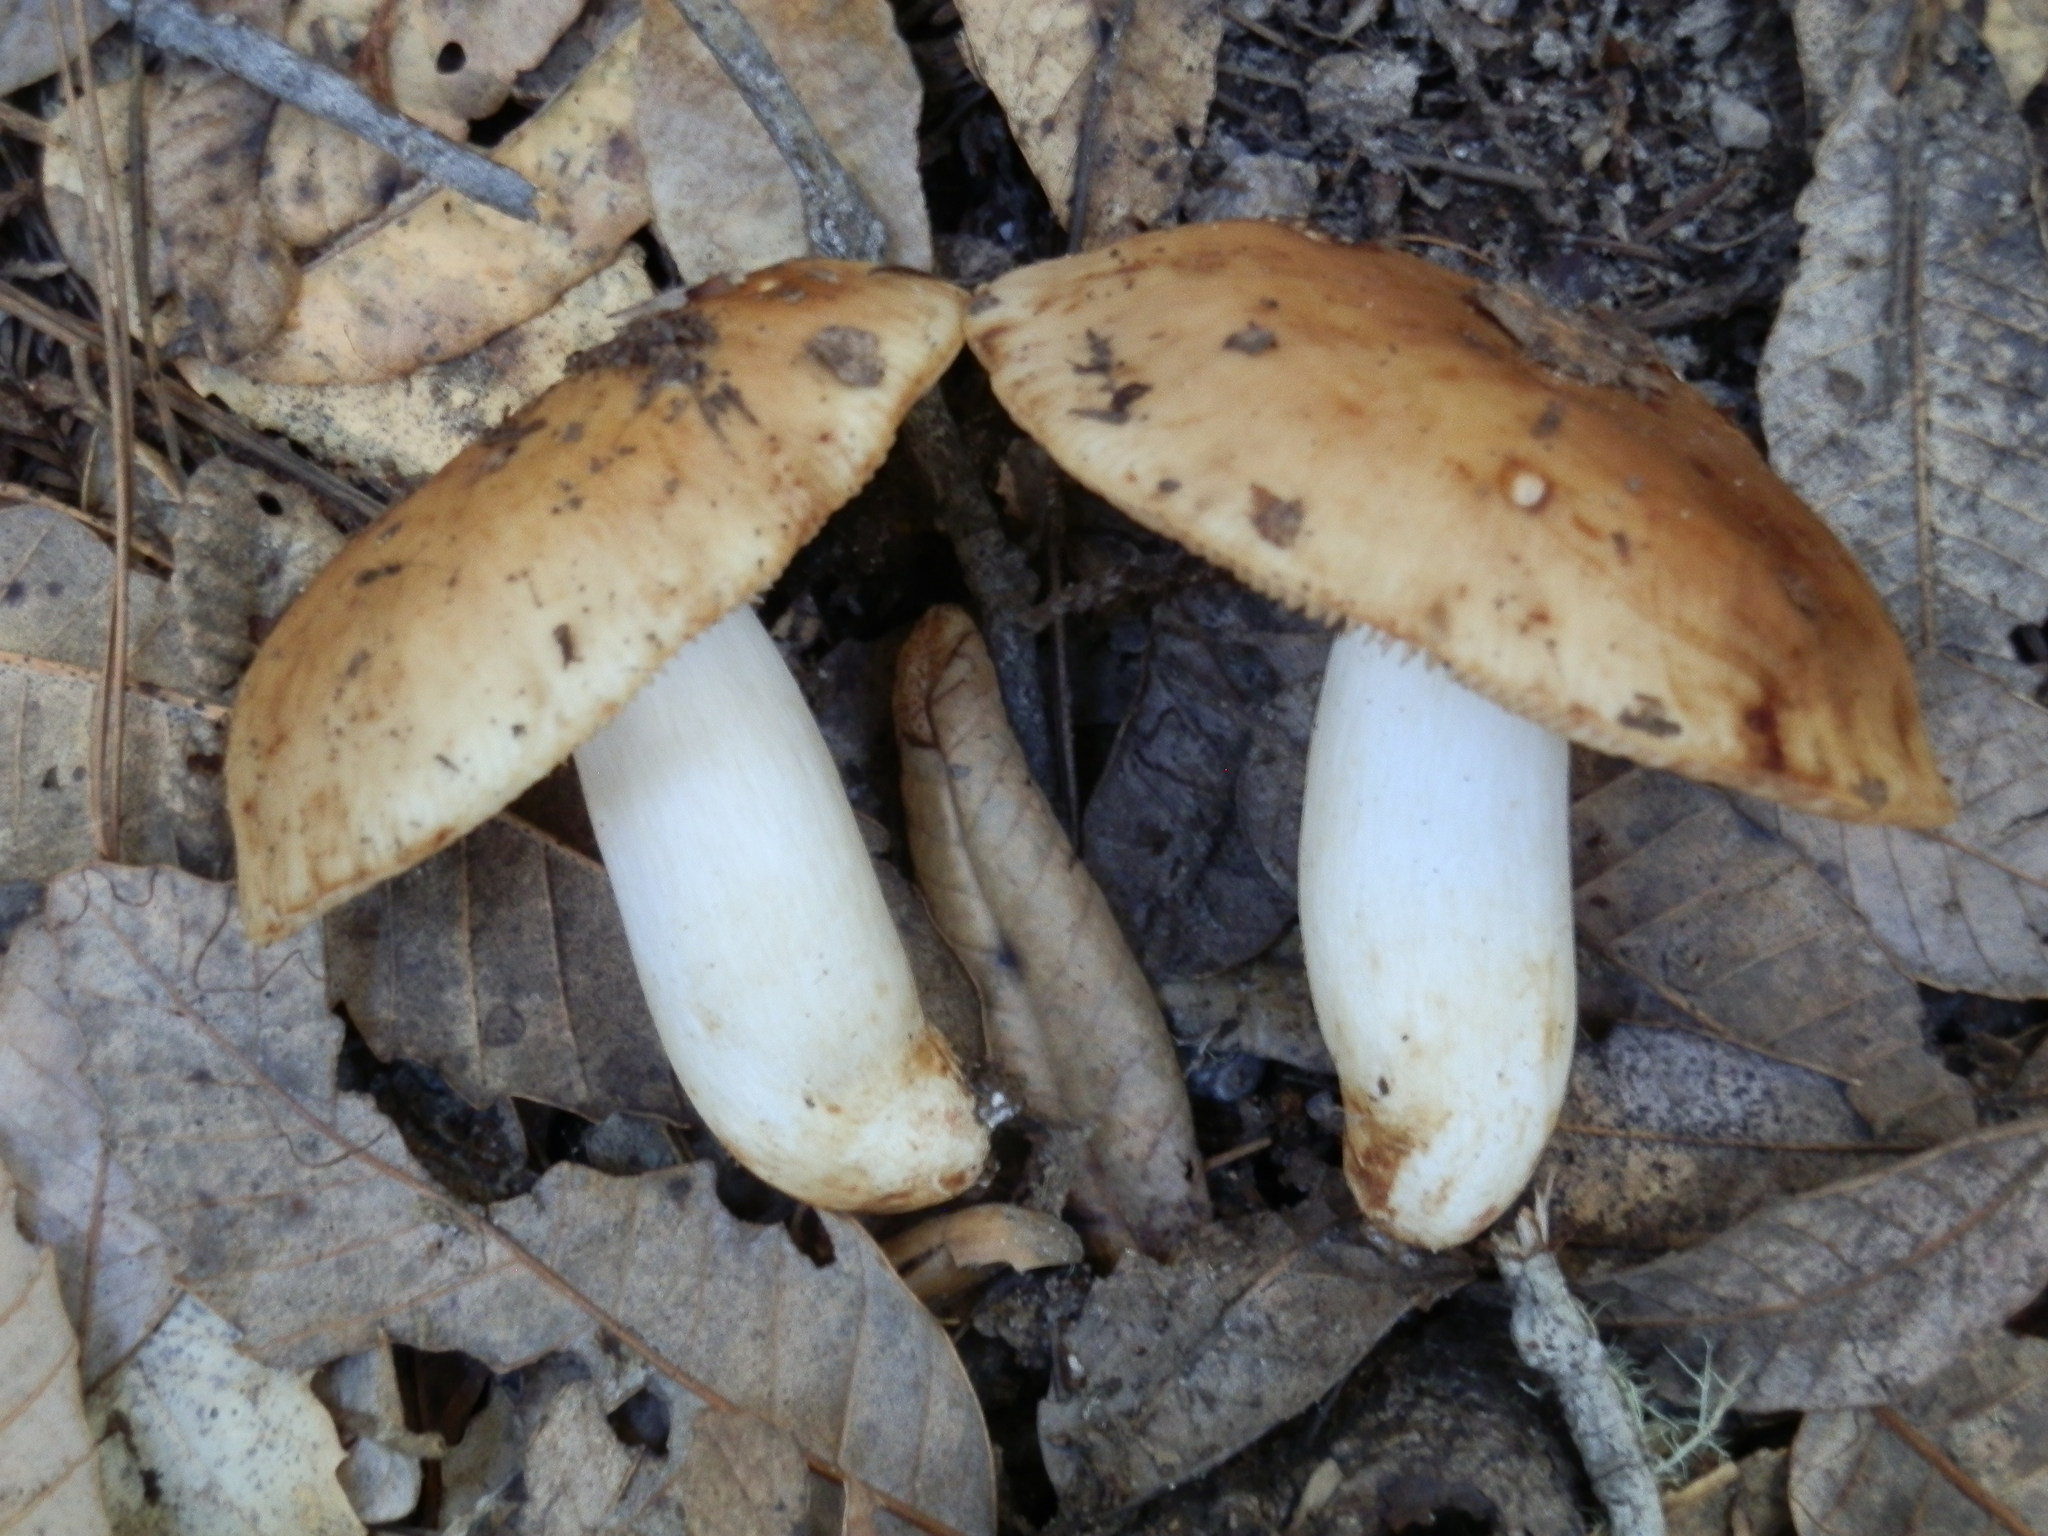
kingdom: Fungi
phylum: Basidiomycota
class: Agaricomycetes
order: Russulales
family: Russulaceae
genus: Russula
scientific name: Russula fragrantissima
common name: Almond-scented russula
